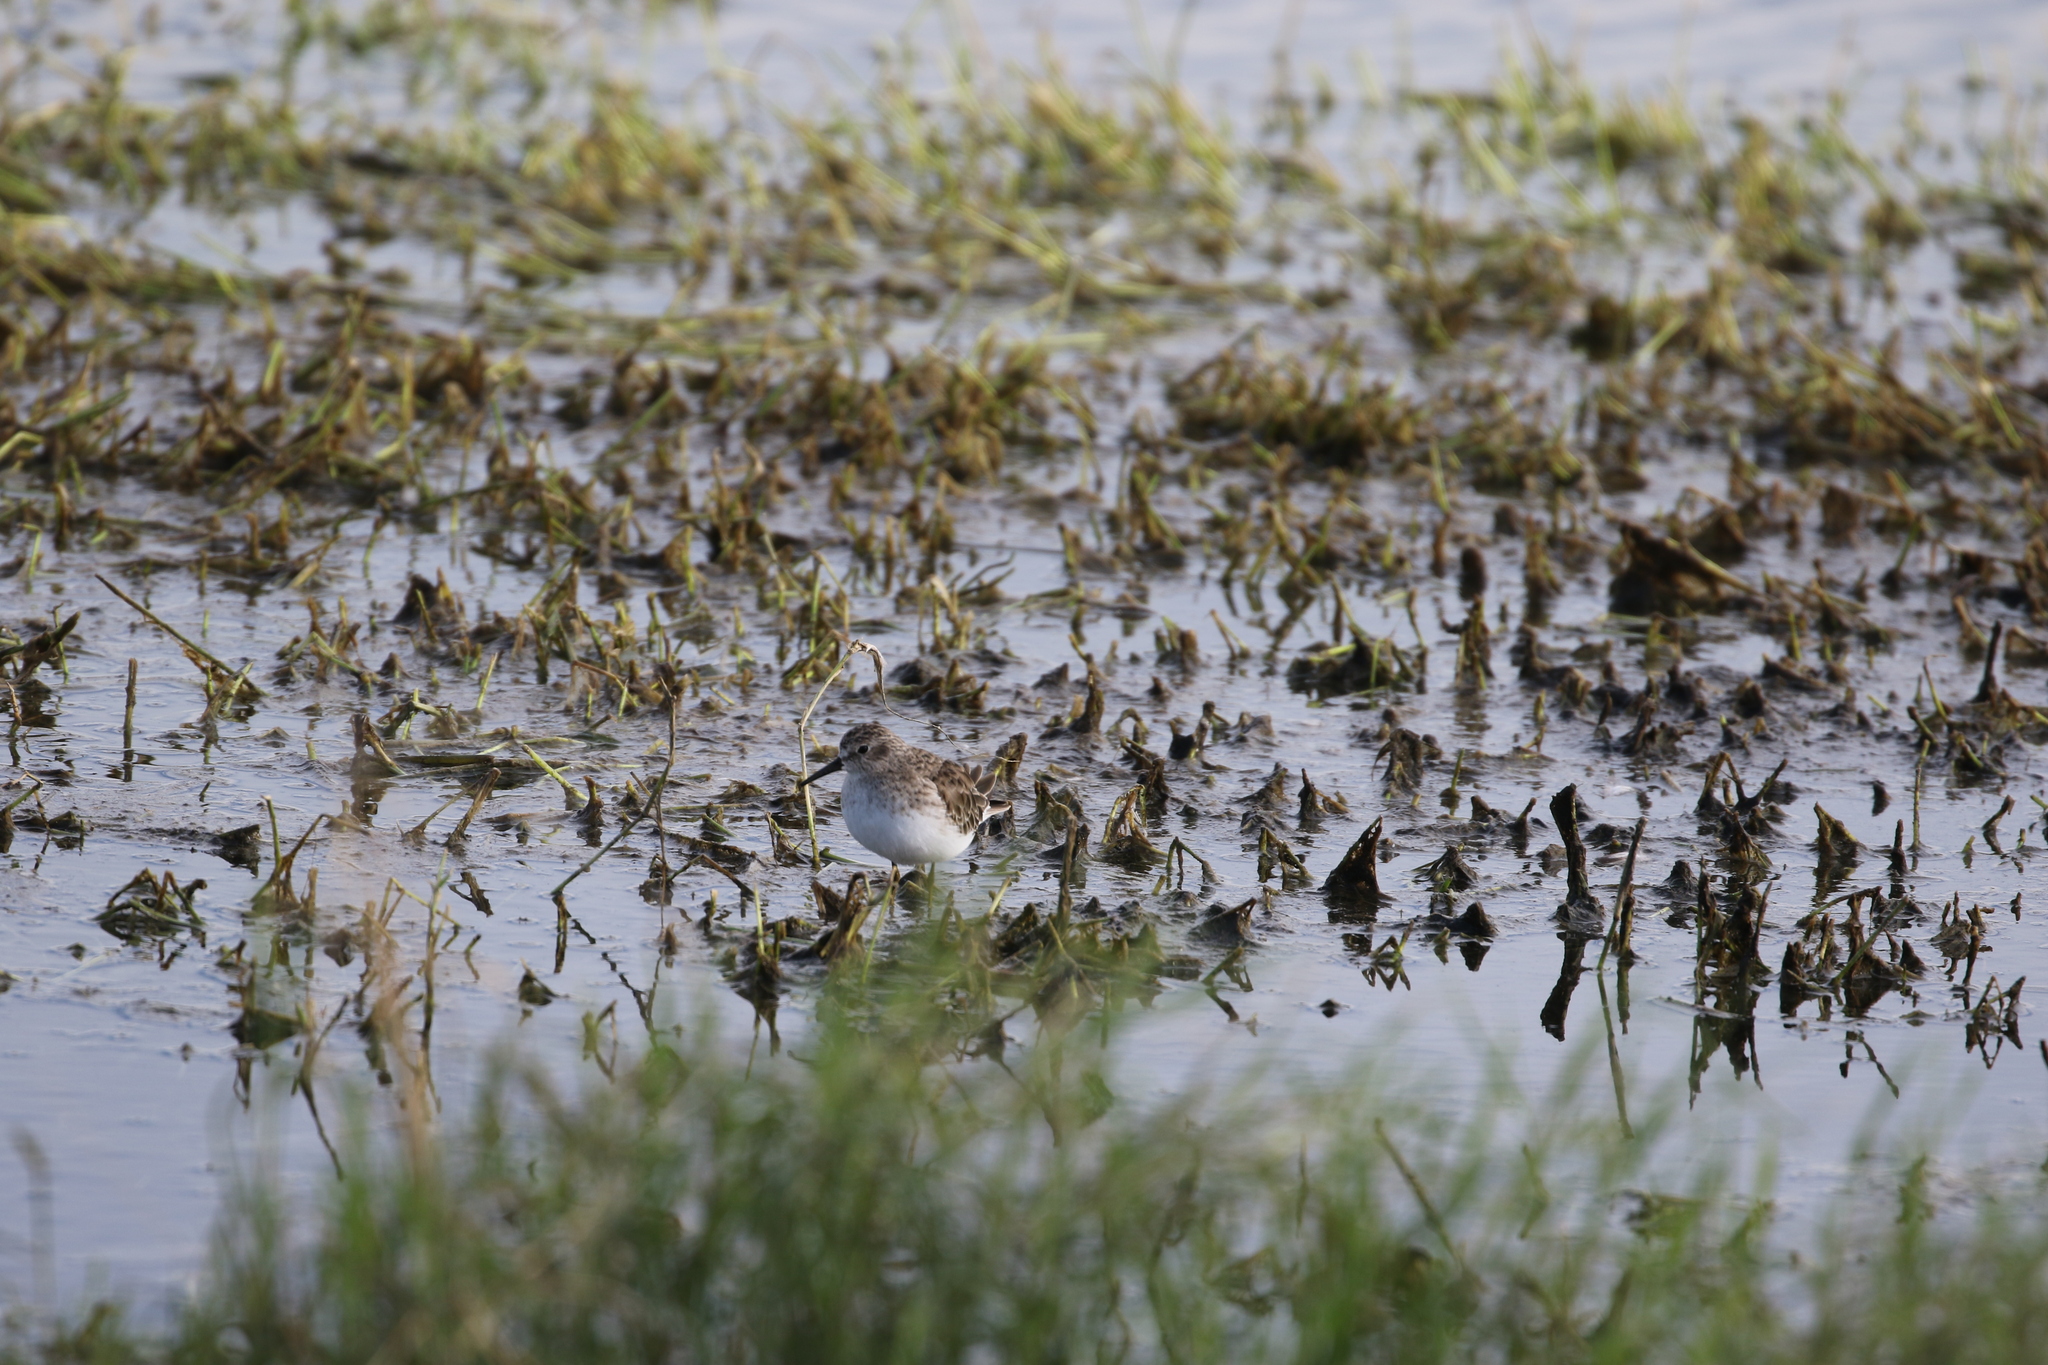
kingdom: Animalia
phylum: Chordata
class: Aves
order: Charadriiformes
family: Scolopacidae
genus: Calidris
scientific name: Calidris minutilla
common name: Least sandpiper
